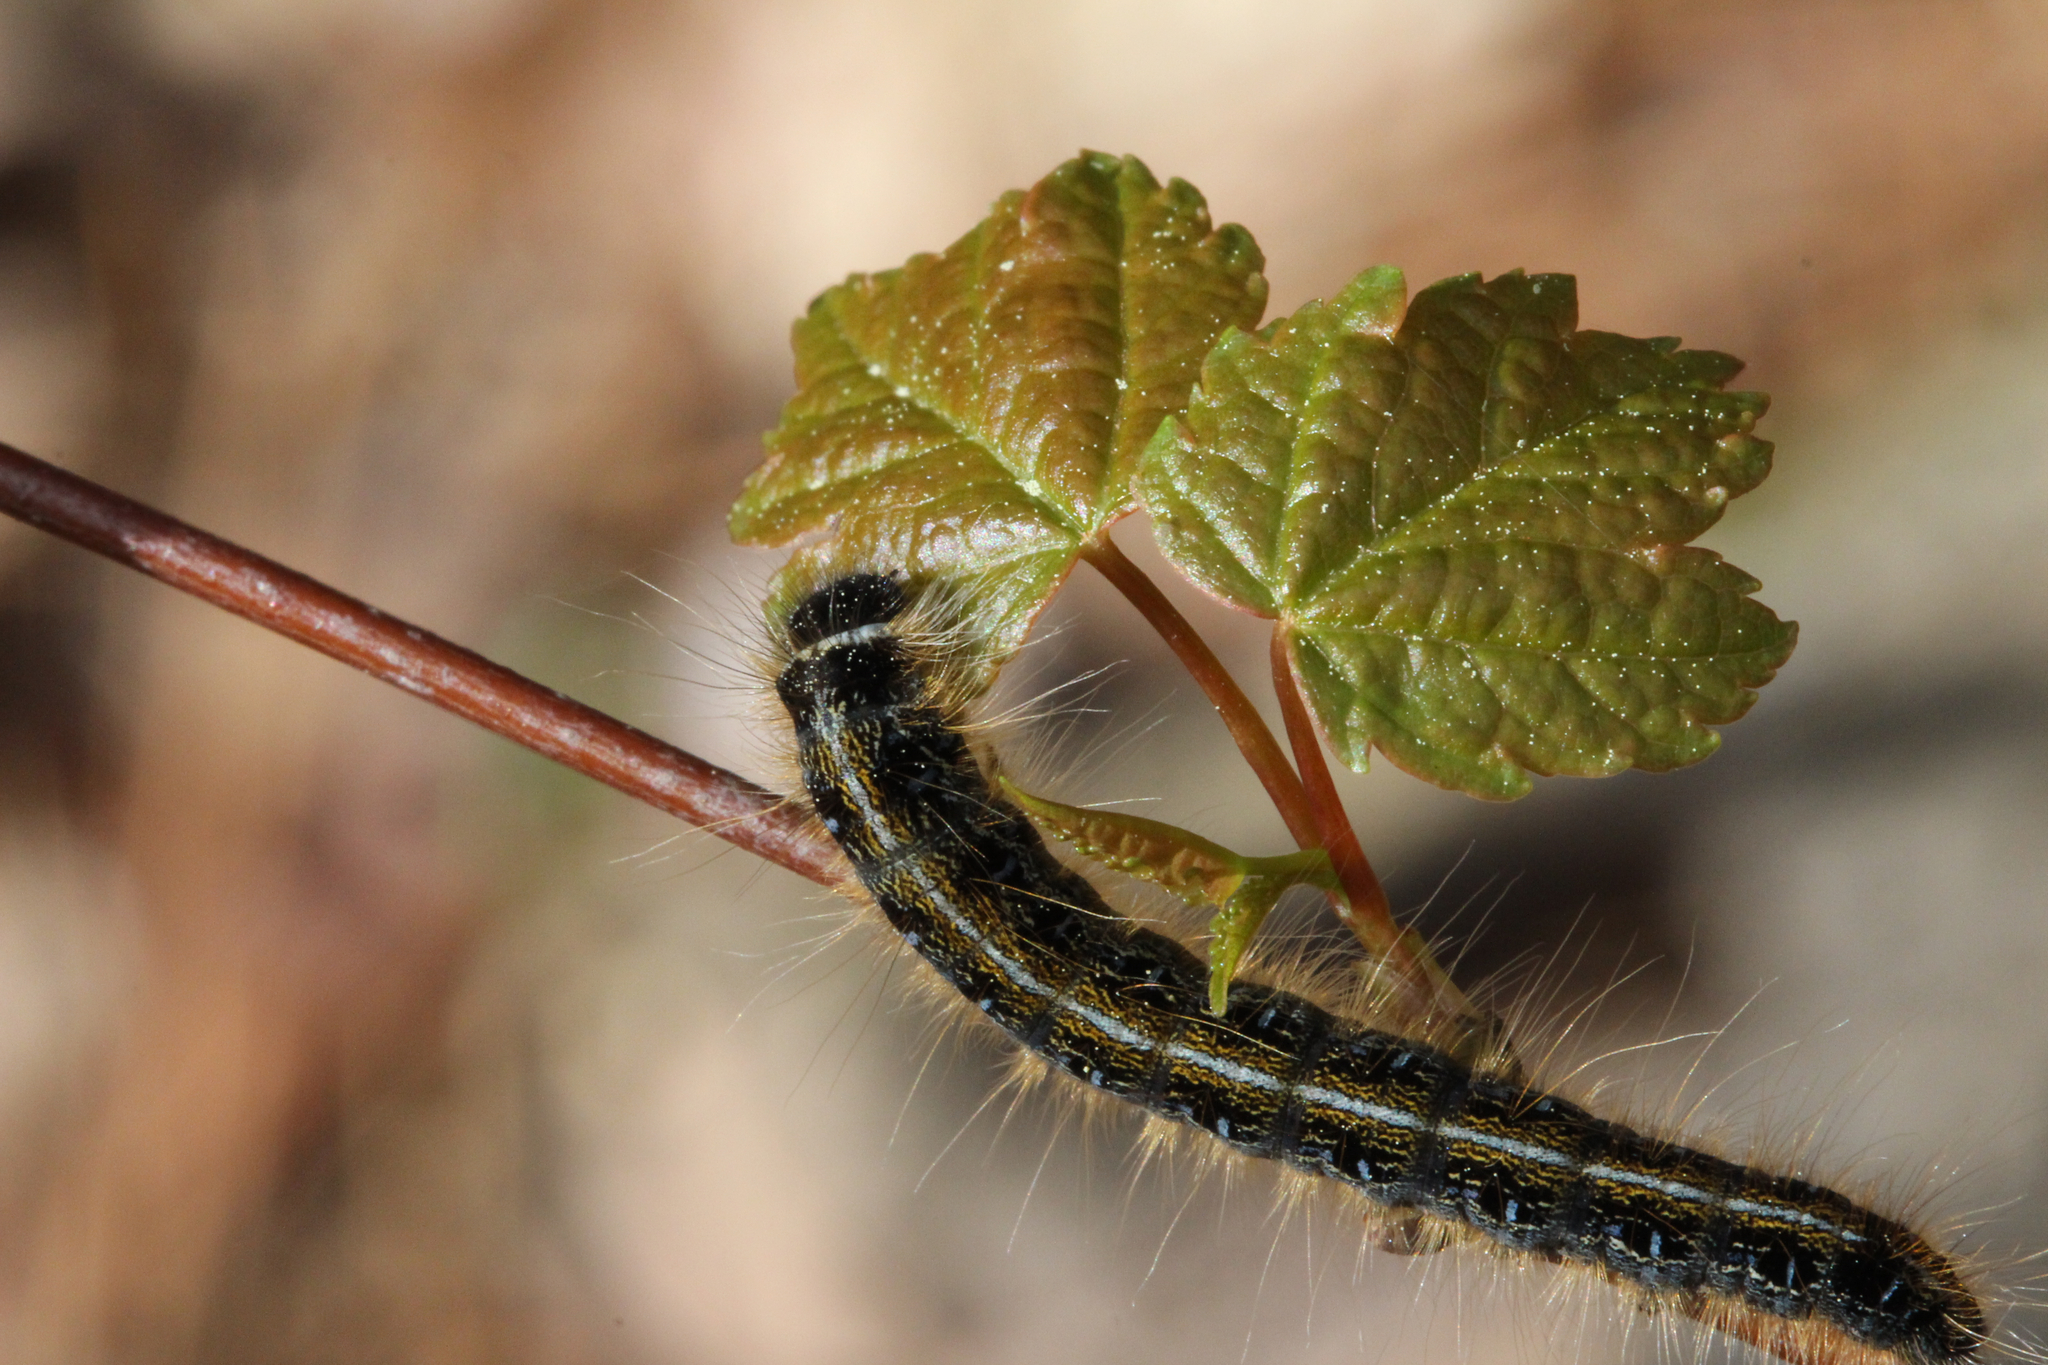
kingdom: Animalia
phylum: Arthropoda
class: Insecta
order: Lepidoptera
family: Lasiocampidae
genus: Malacosoma
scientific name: Malacosoma americana
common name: Eastern tent caterpillar moth
